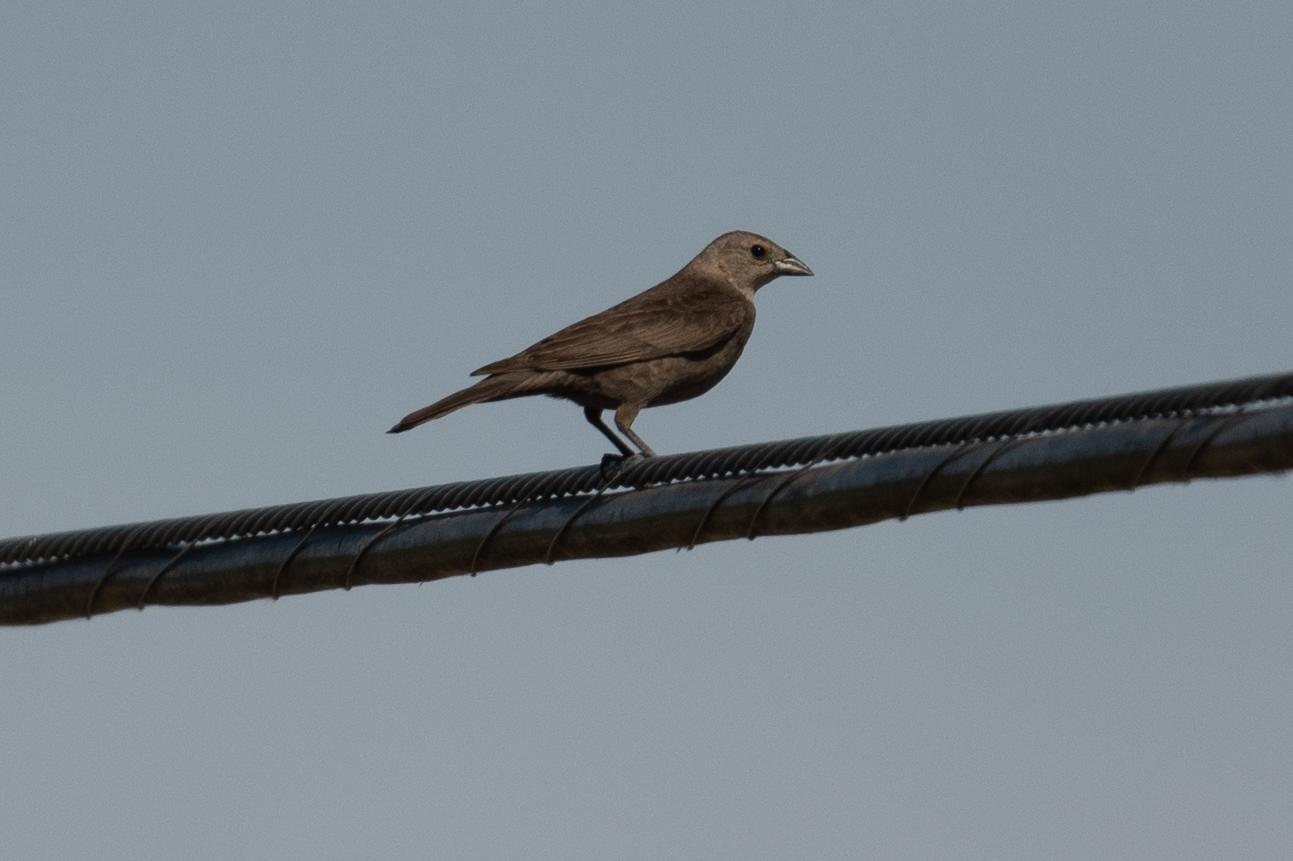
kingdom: Animalia
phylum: Chordata
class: Aves
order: Passeriformes
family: Icteridae
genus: Molothrus
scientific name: Molothrus ater
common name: Brown-headed cowbird
